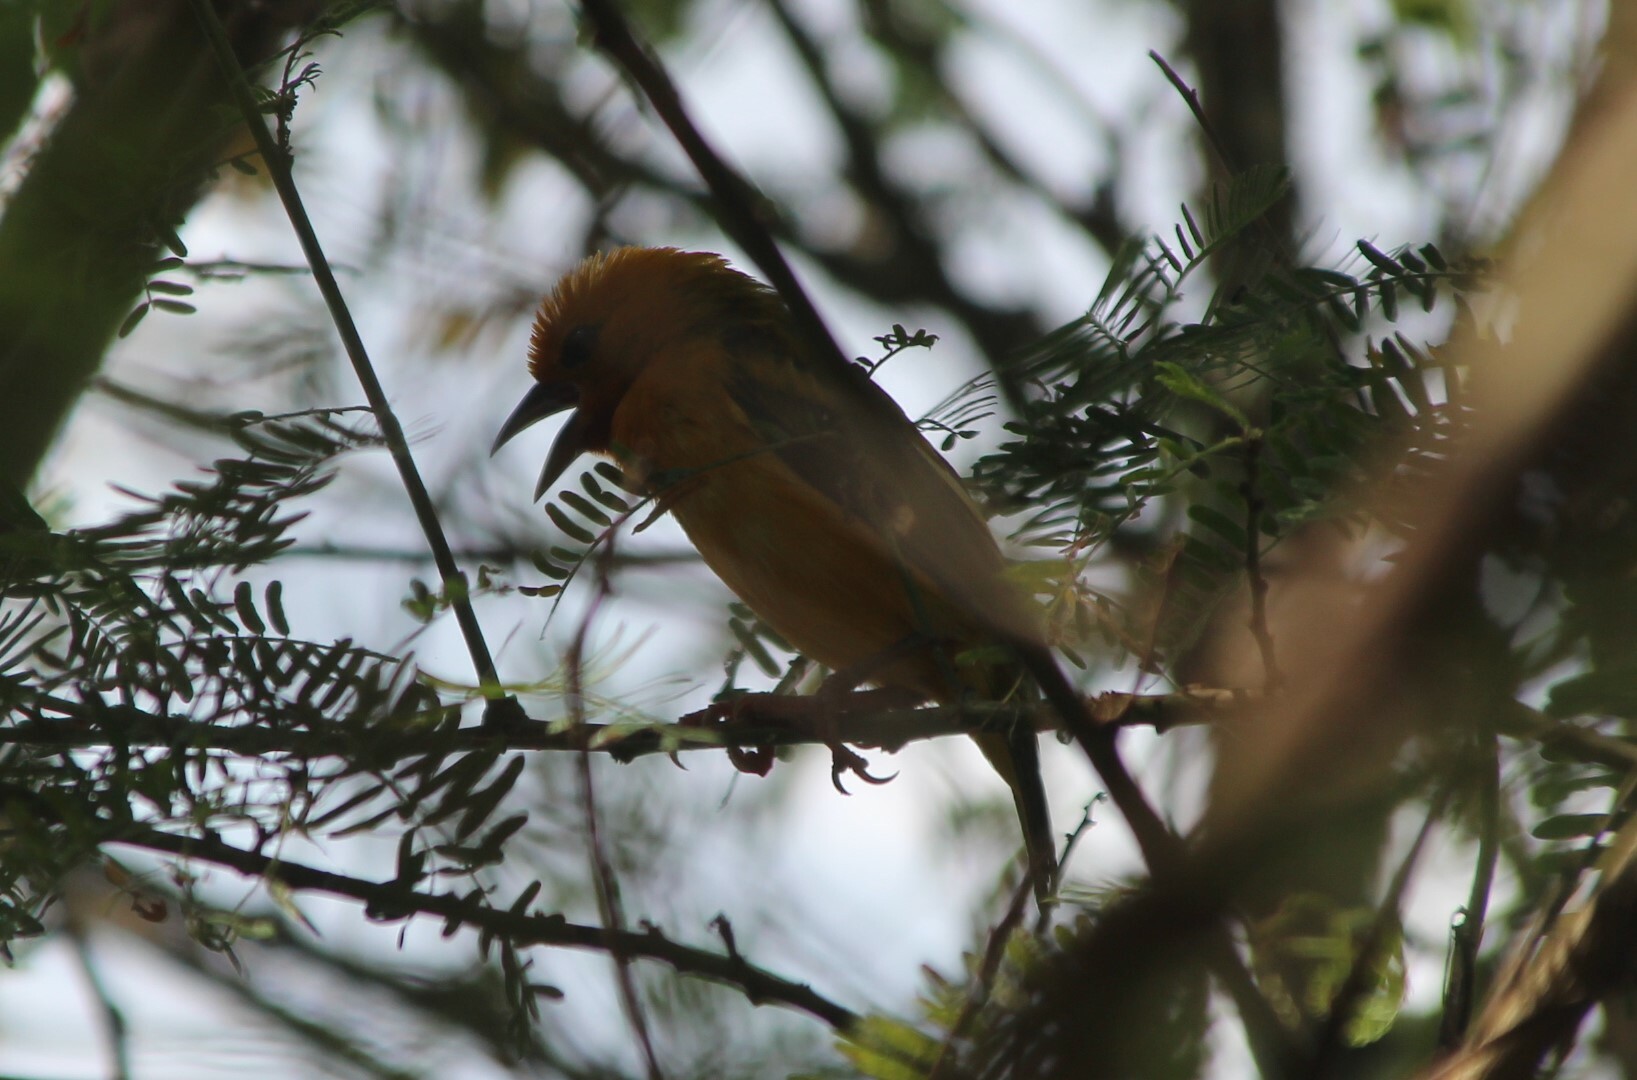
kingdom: Animalia
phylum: Chordata
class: Aves
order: Passeriformes
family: Ploceidae
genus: Ploceus
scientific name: Ploceus aurantius
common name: Orange weaver
